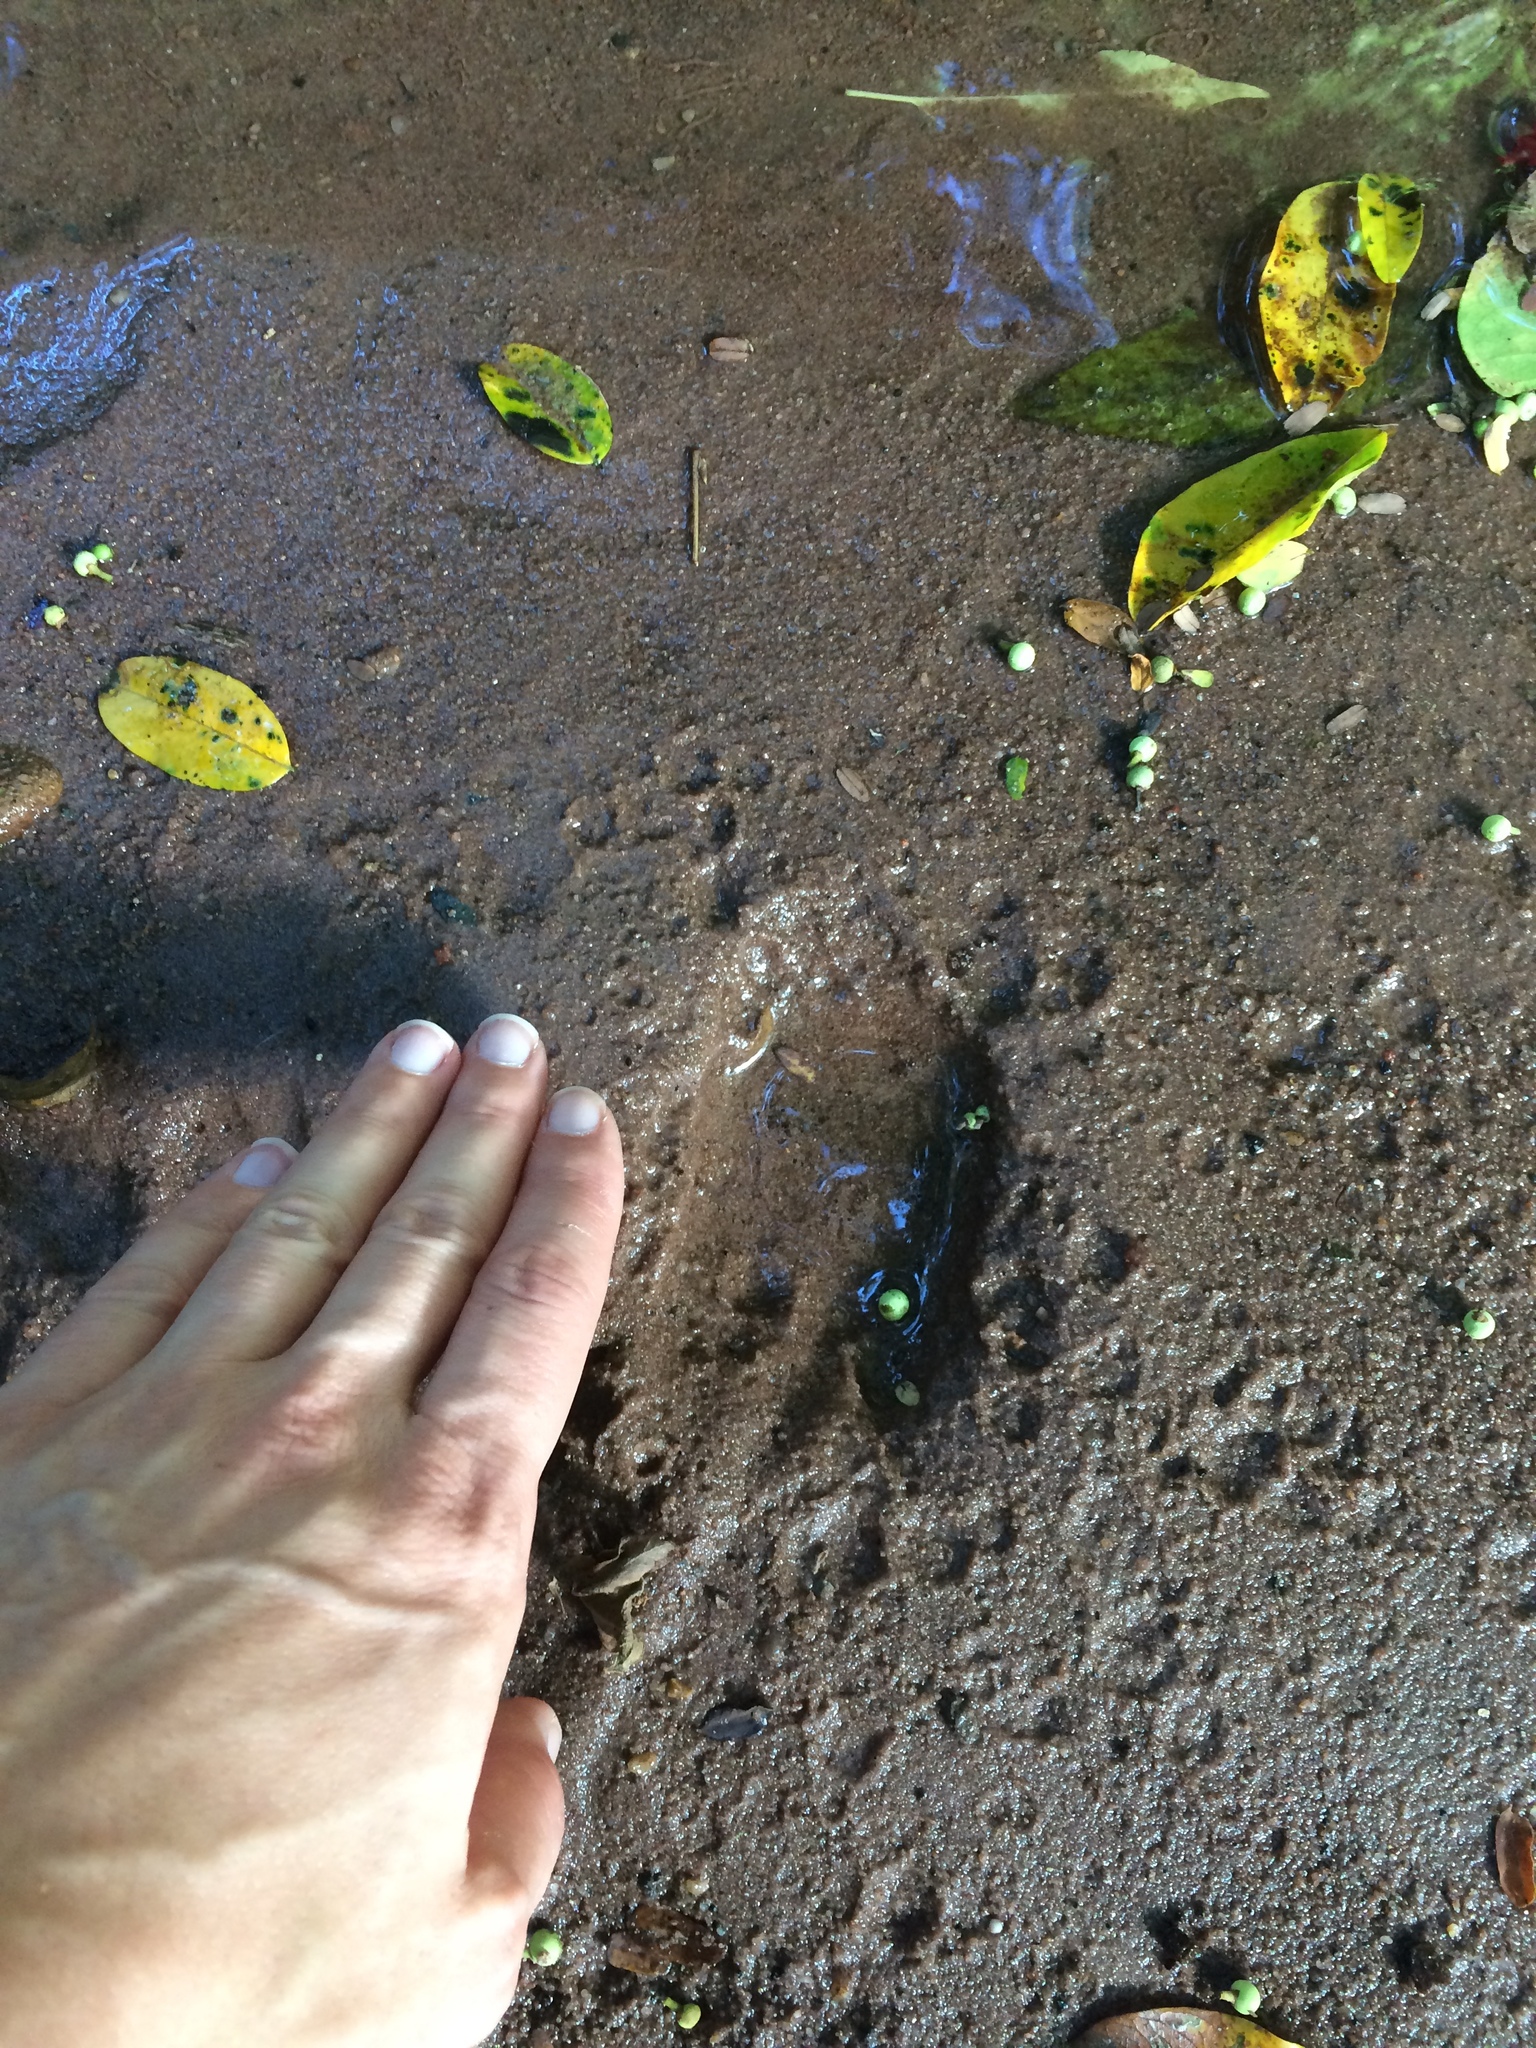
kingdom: Animalia
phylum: Chordata
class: Mammalia
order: Artiodactyla
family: Suidae
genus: Potamochoerus
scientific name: Potamochoerus larvatus
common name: Bushpig
